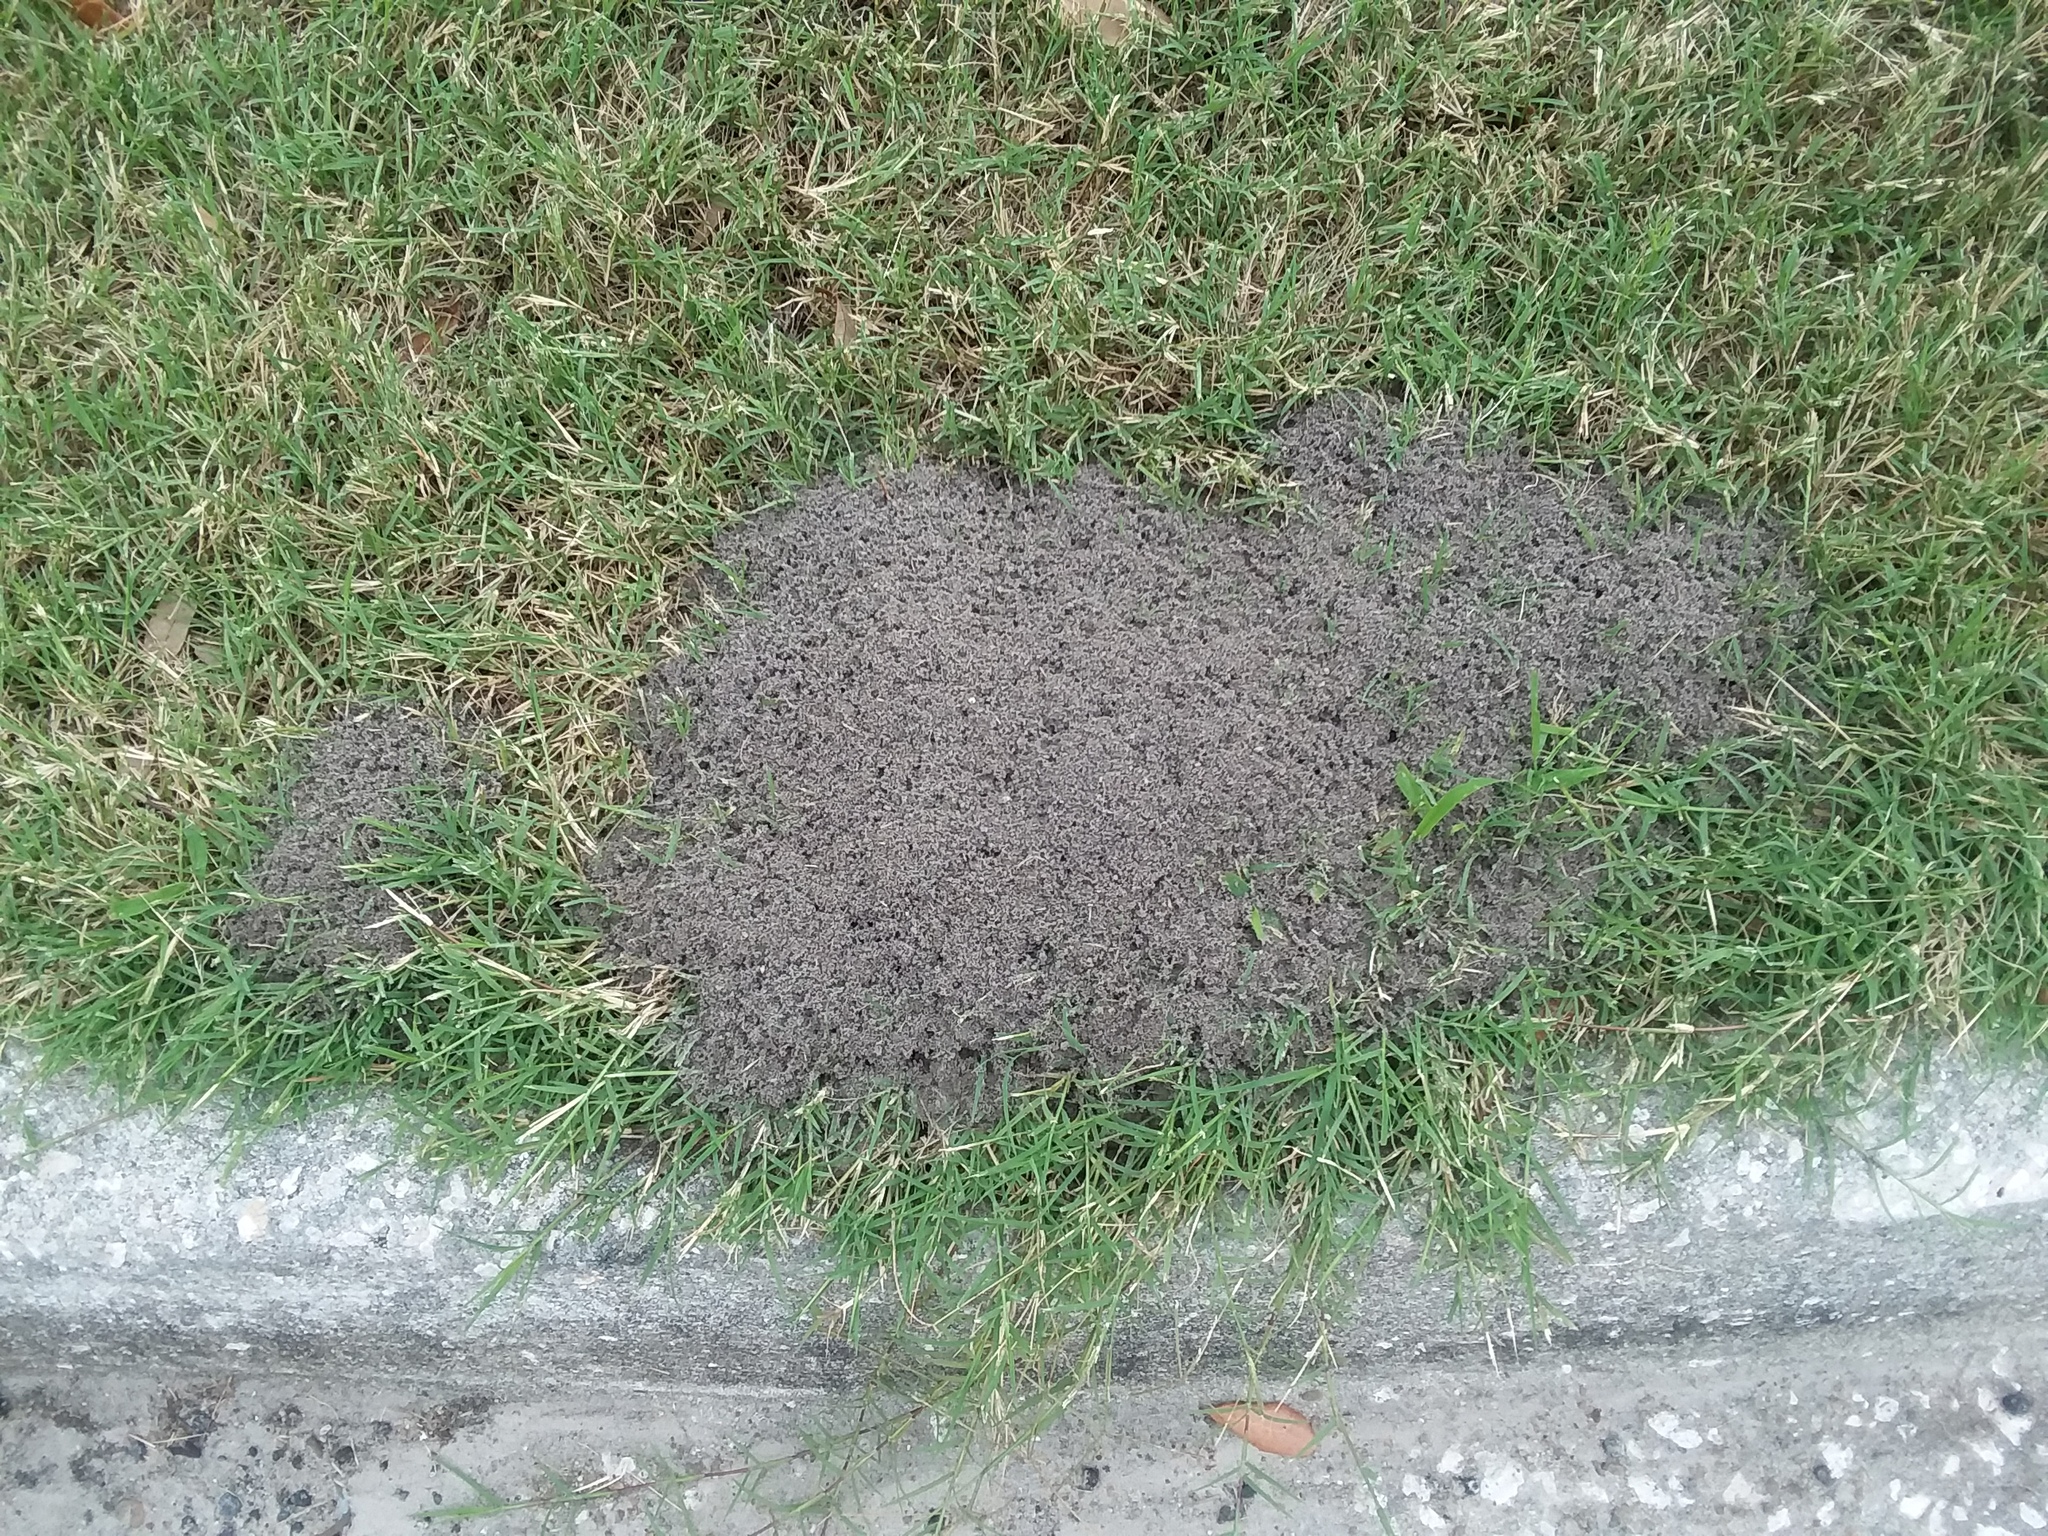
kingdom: Animalia
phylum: Arthropoda
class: Insecta
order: Hymenoptera
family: Formicidae
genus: Solenopsis
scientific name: Solenopsis invicta
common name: Red imported fire ant
